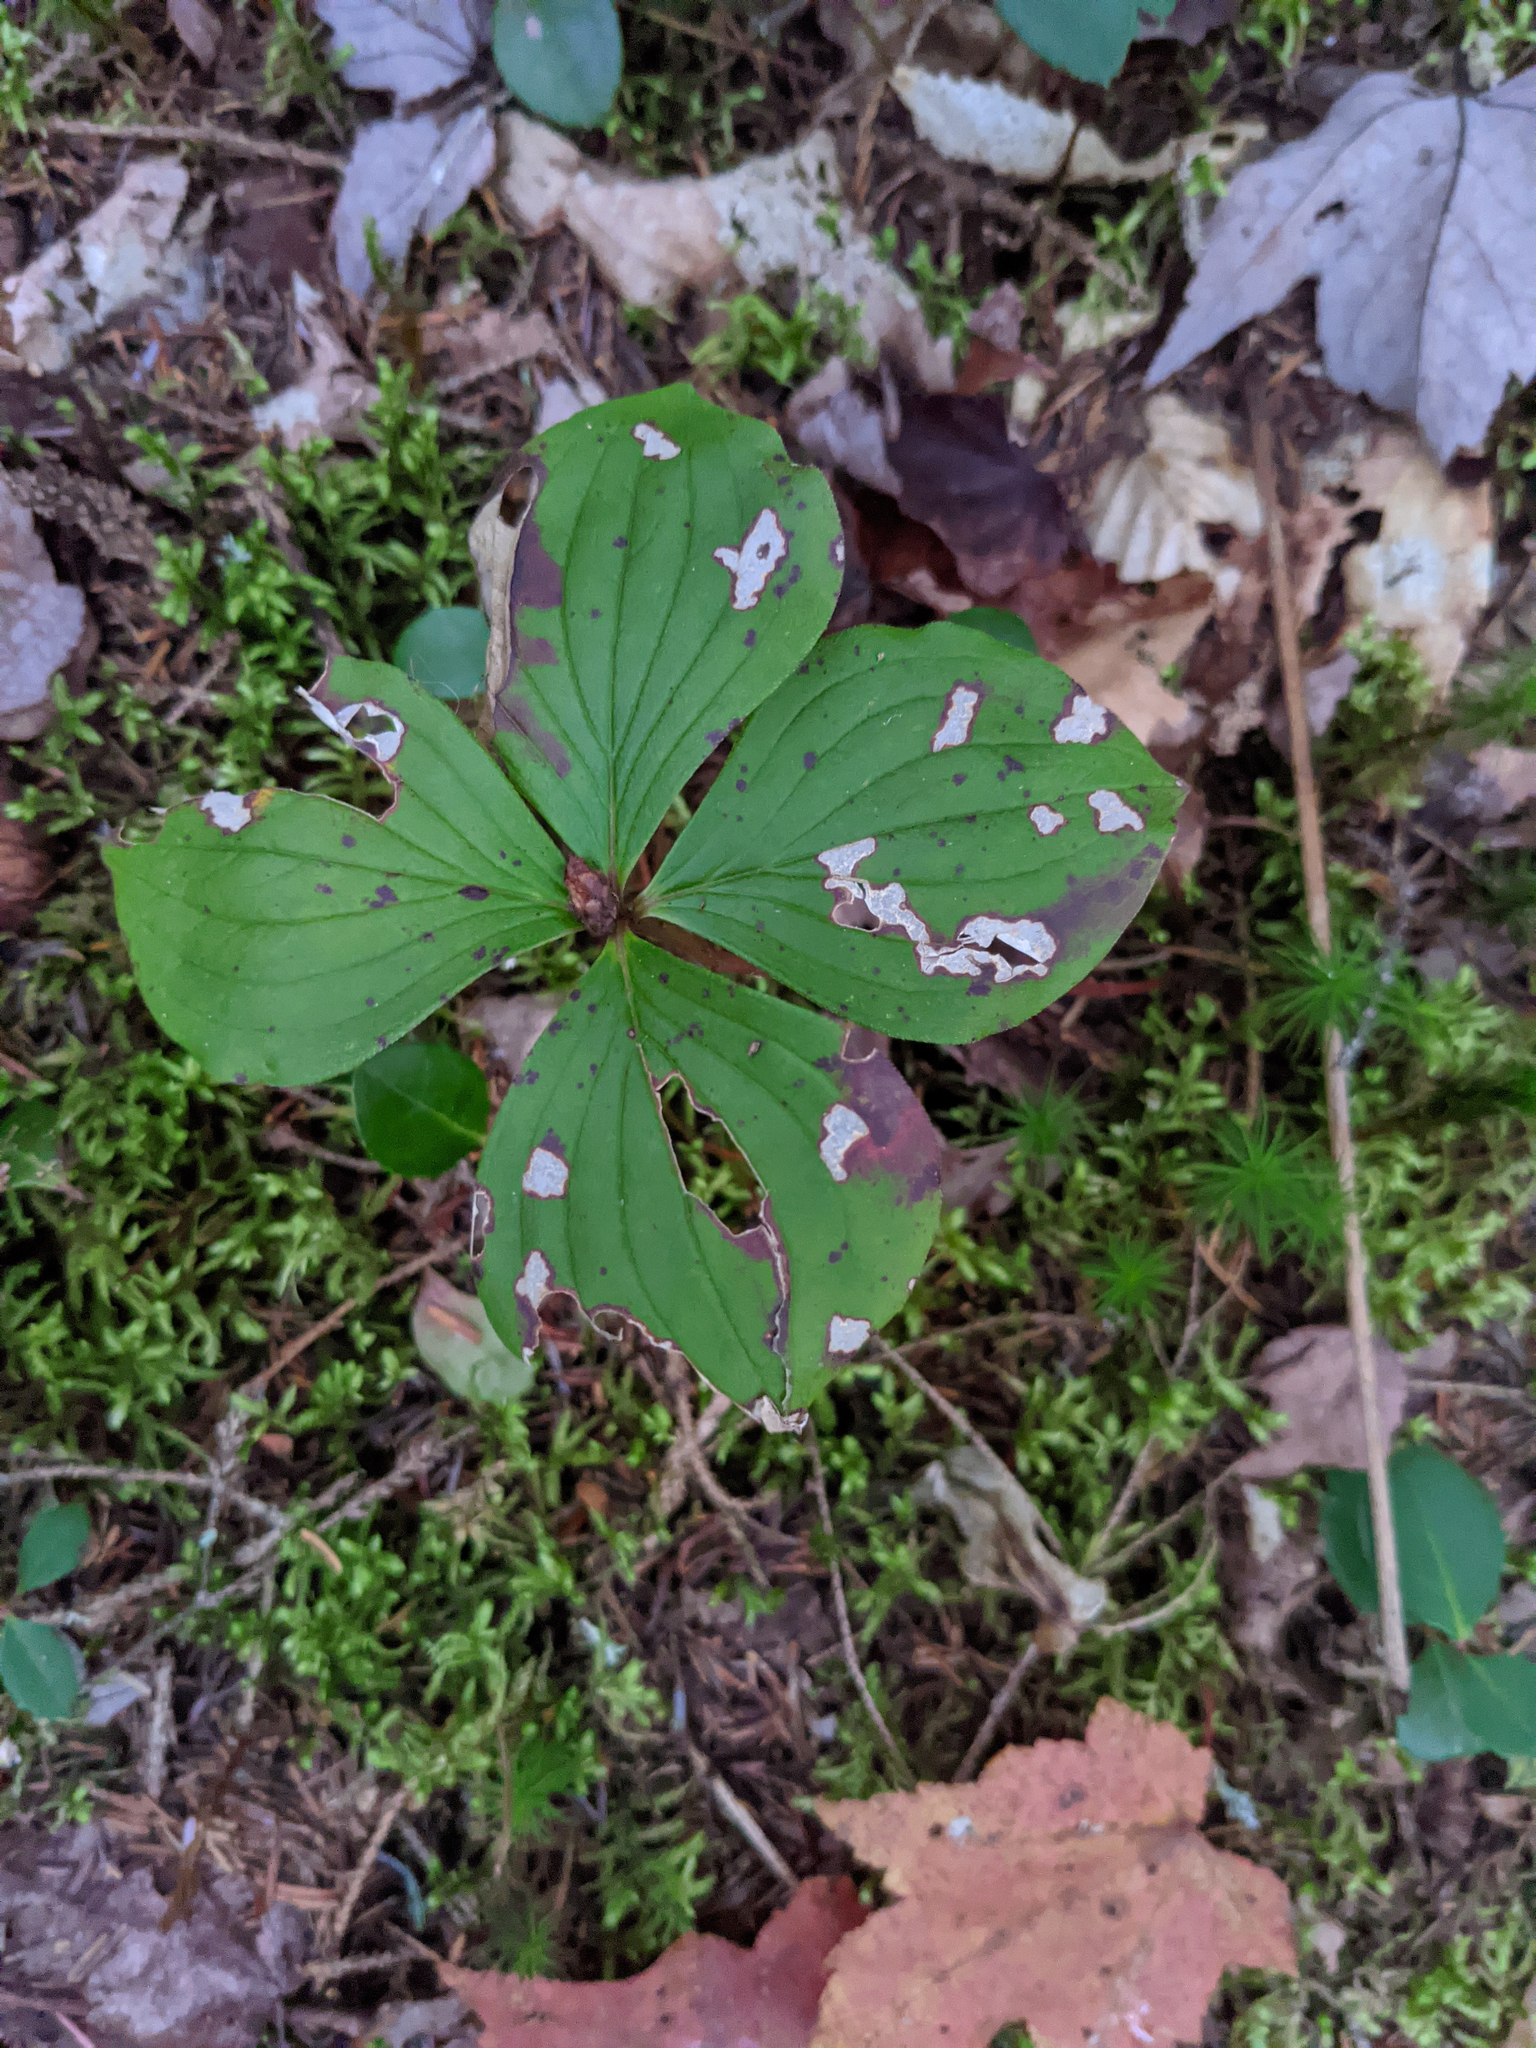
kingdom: Plantae
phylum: Tracheophyta
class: Magnoliopsida
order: Cornales
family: Cornaceae
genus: Cornus
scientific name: Cornus canadensis
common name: Creeping dogwood
